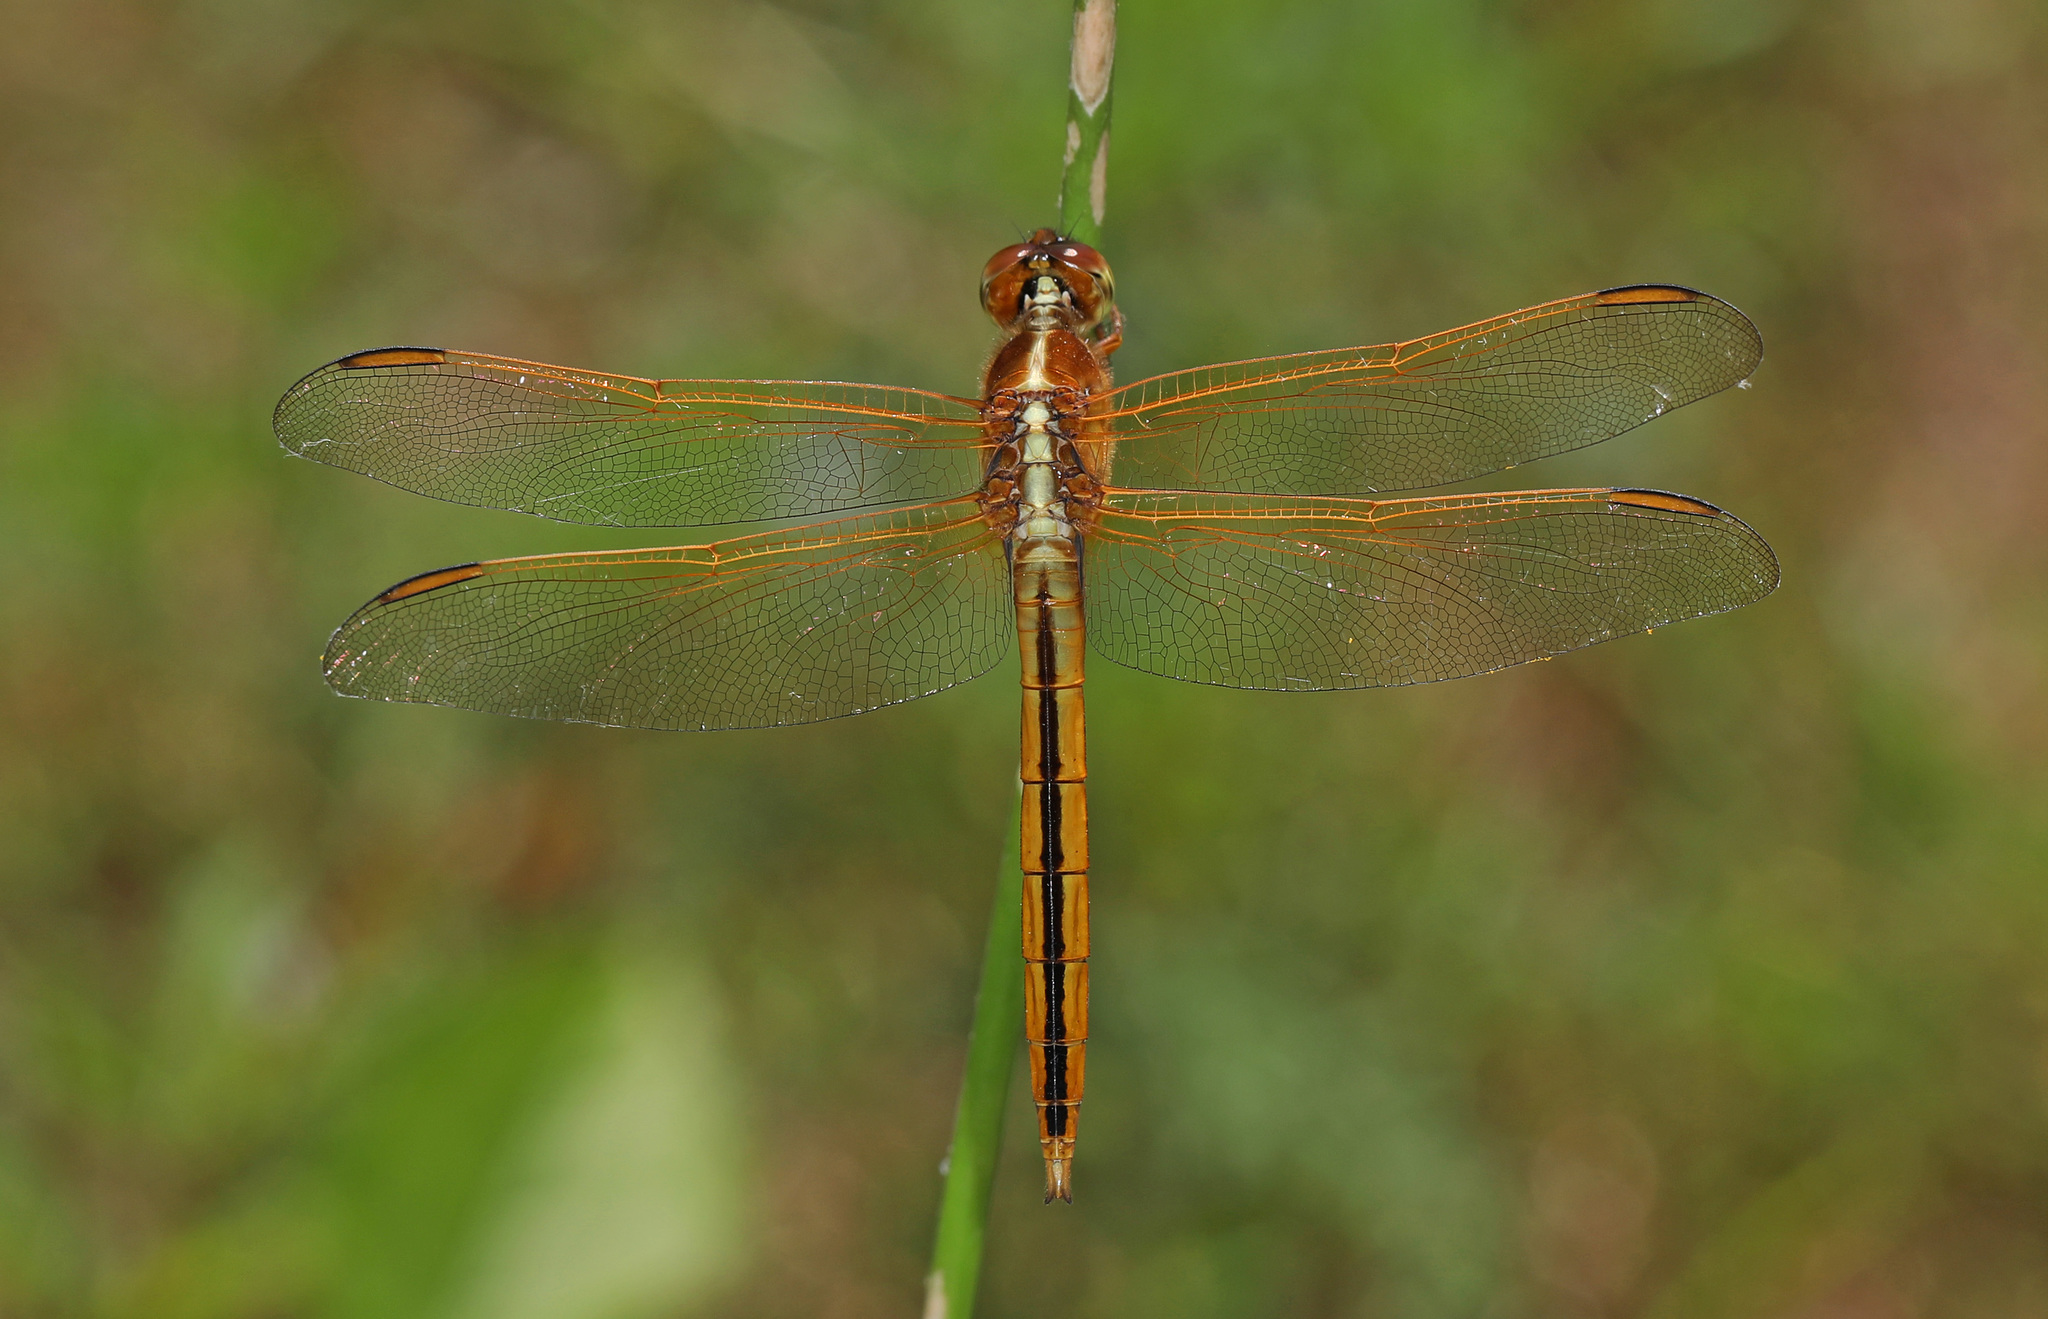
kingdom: Animalia
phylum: Arthropoda
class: Insecta
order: Odonata
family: Libellulidae
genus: Libellula
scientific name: Libellula needhami
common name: Needham's skimmer
